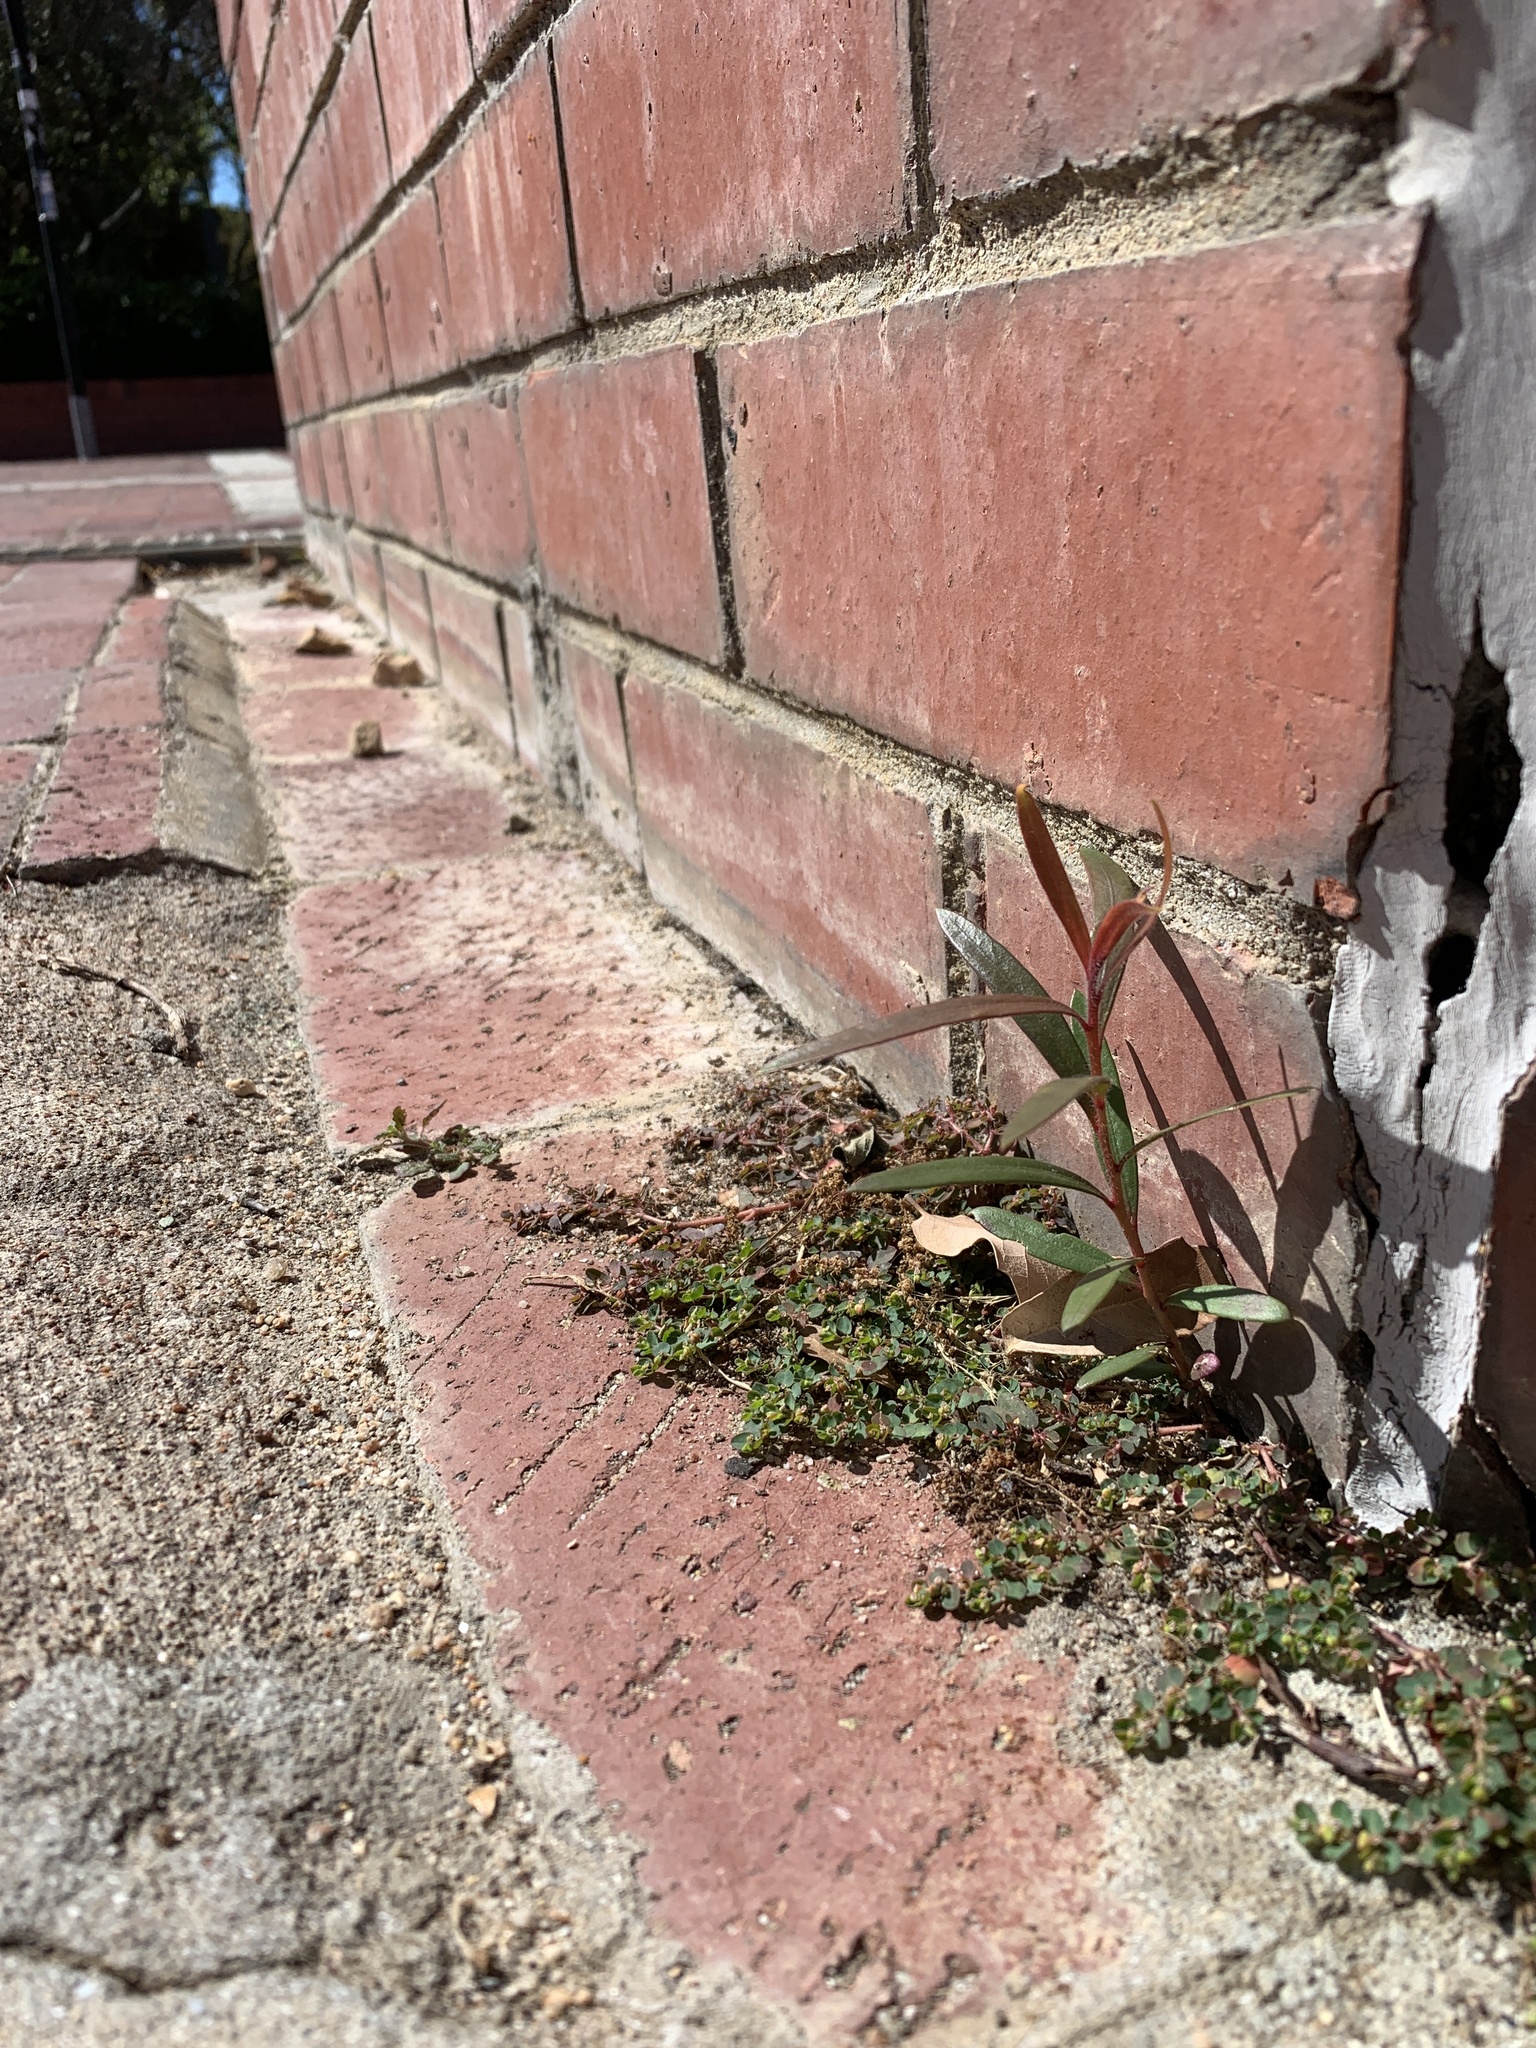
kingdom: Plantae
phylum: Tracheophyta
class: Magnoliopsida
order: Myrtales
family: Myrtaceae
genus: Callistemon
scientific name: Callistemon viminalis
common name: Drooping bottlebrush
